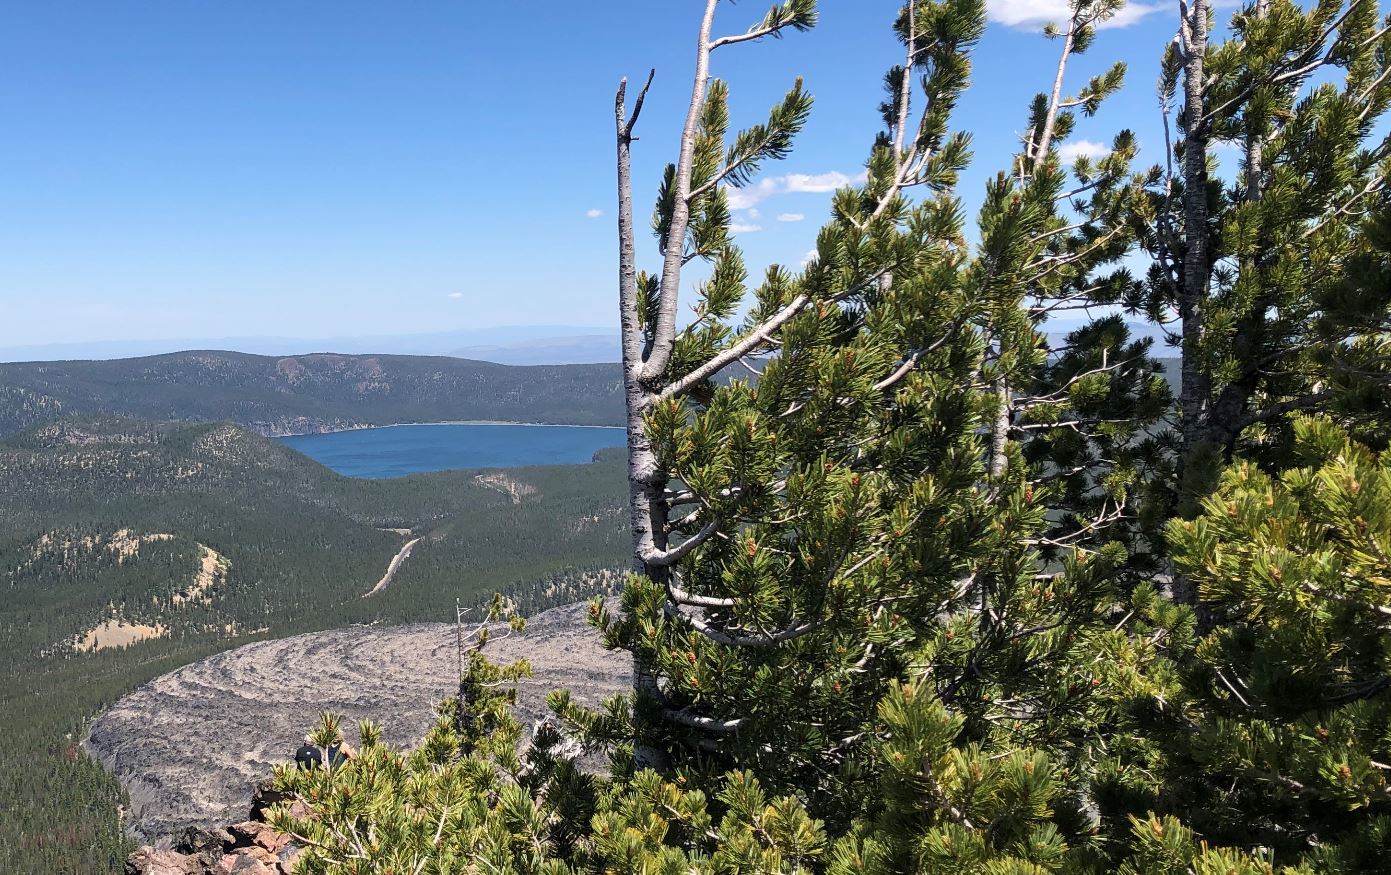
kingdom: Plantae
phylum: Tracheophyta
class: Pinopsida
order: Pinales
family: Pinaceae
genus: Pinus
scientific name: Pinus albicaulis
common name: Whitebark pine
